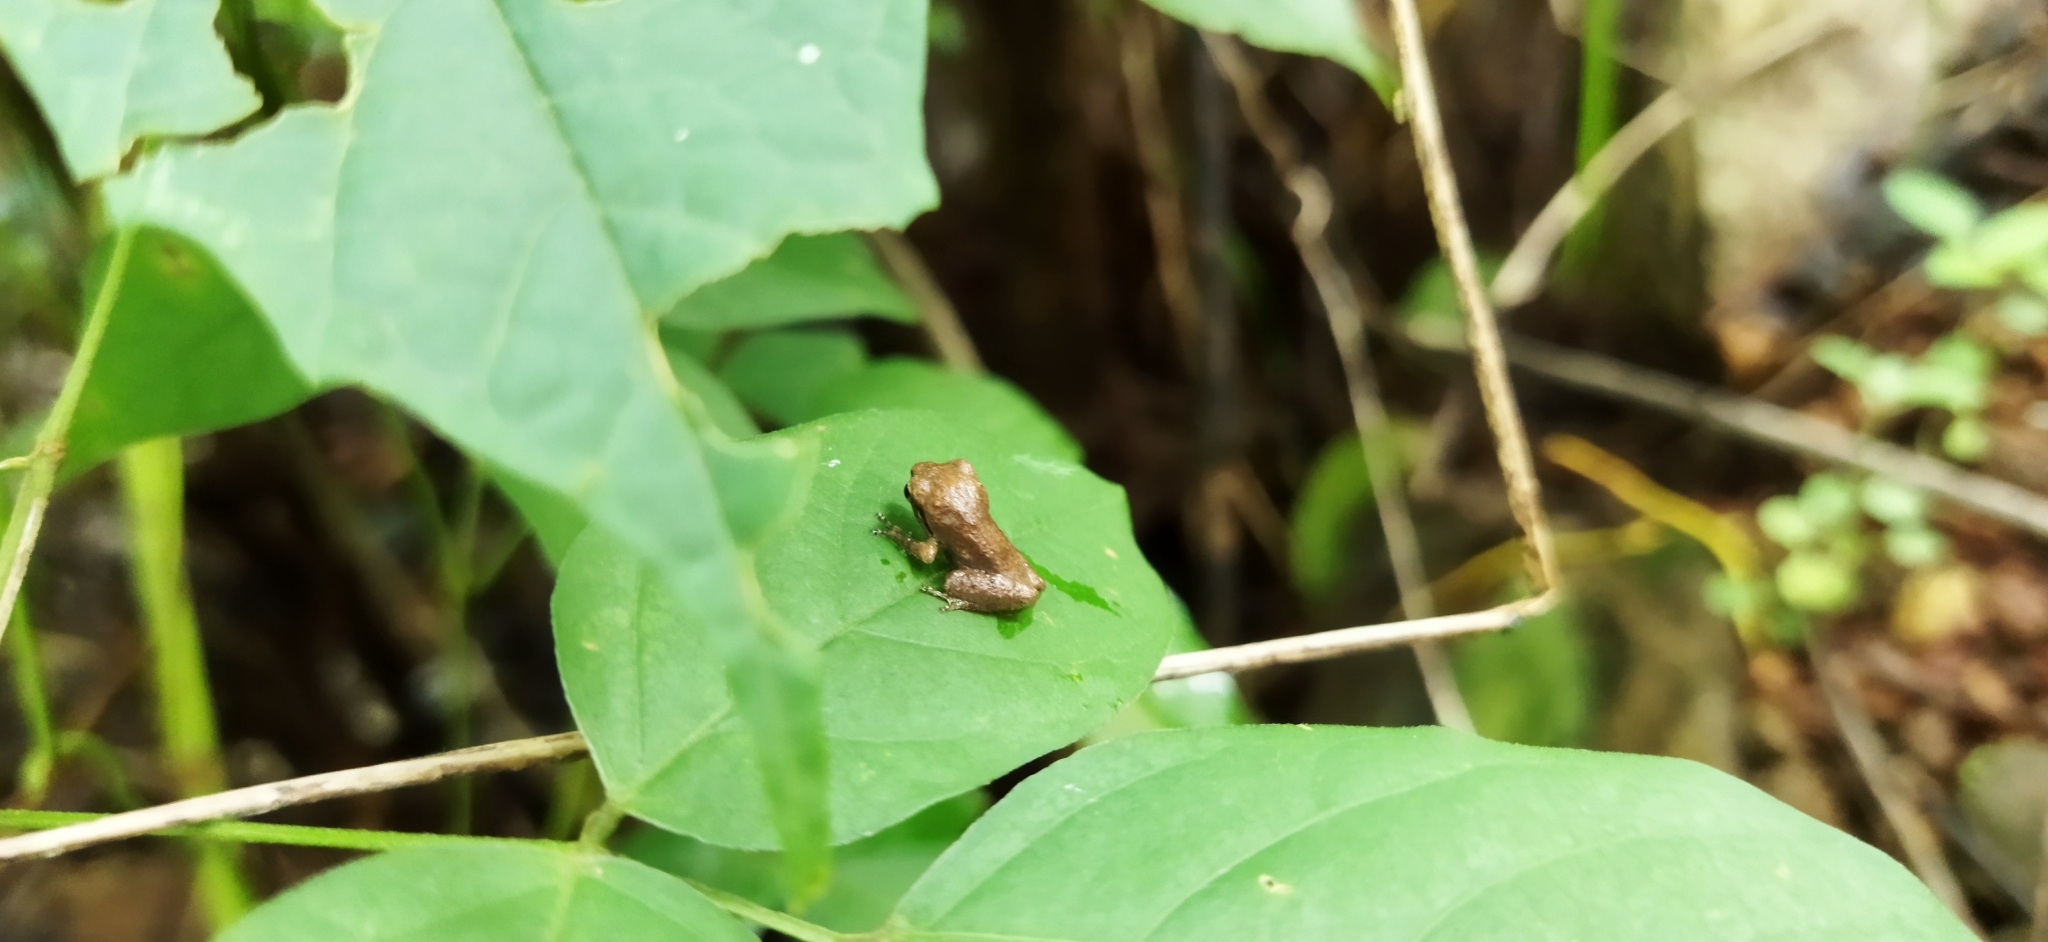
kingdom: Animalia
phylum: Chordata
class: Amphibia
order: Anura
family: Rhacophoridae
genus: Pseudophilautus
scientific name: Pseudophilautus wynaadensis
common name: Dark-eared bush frog
